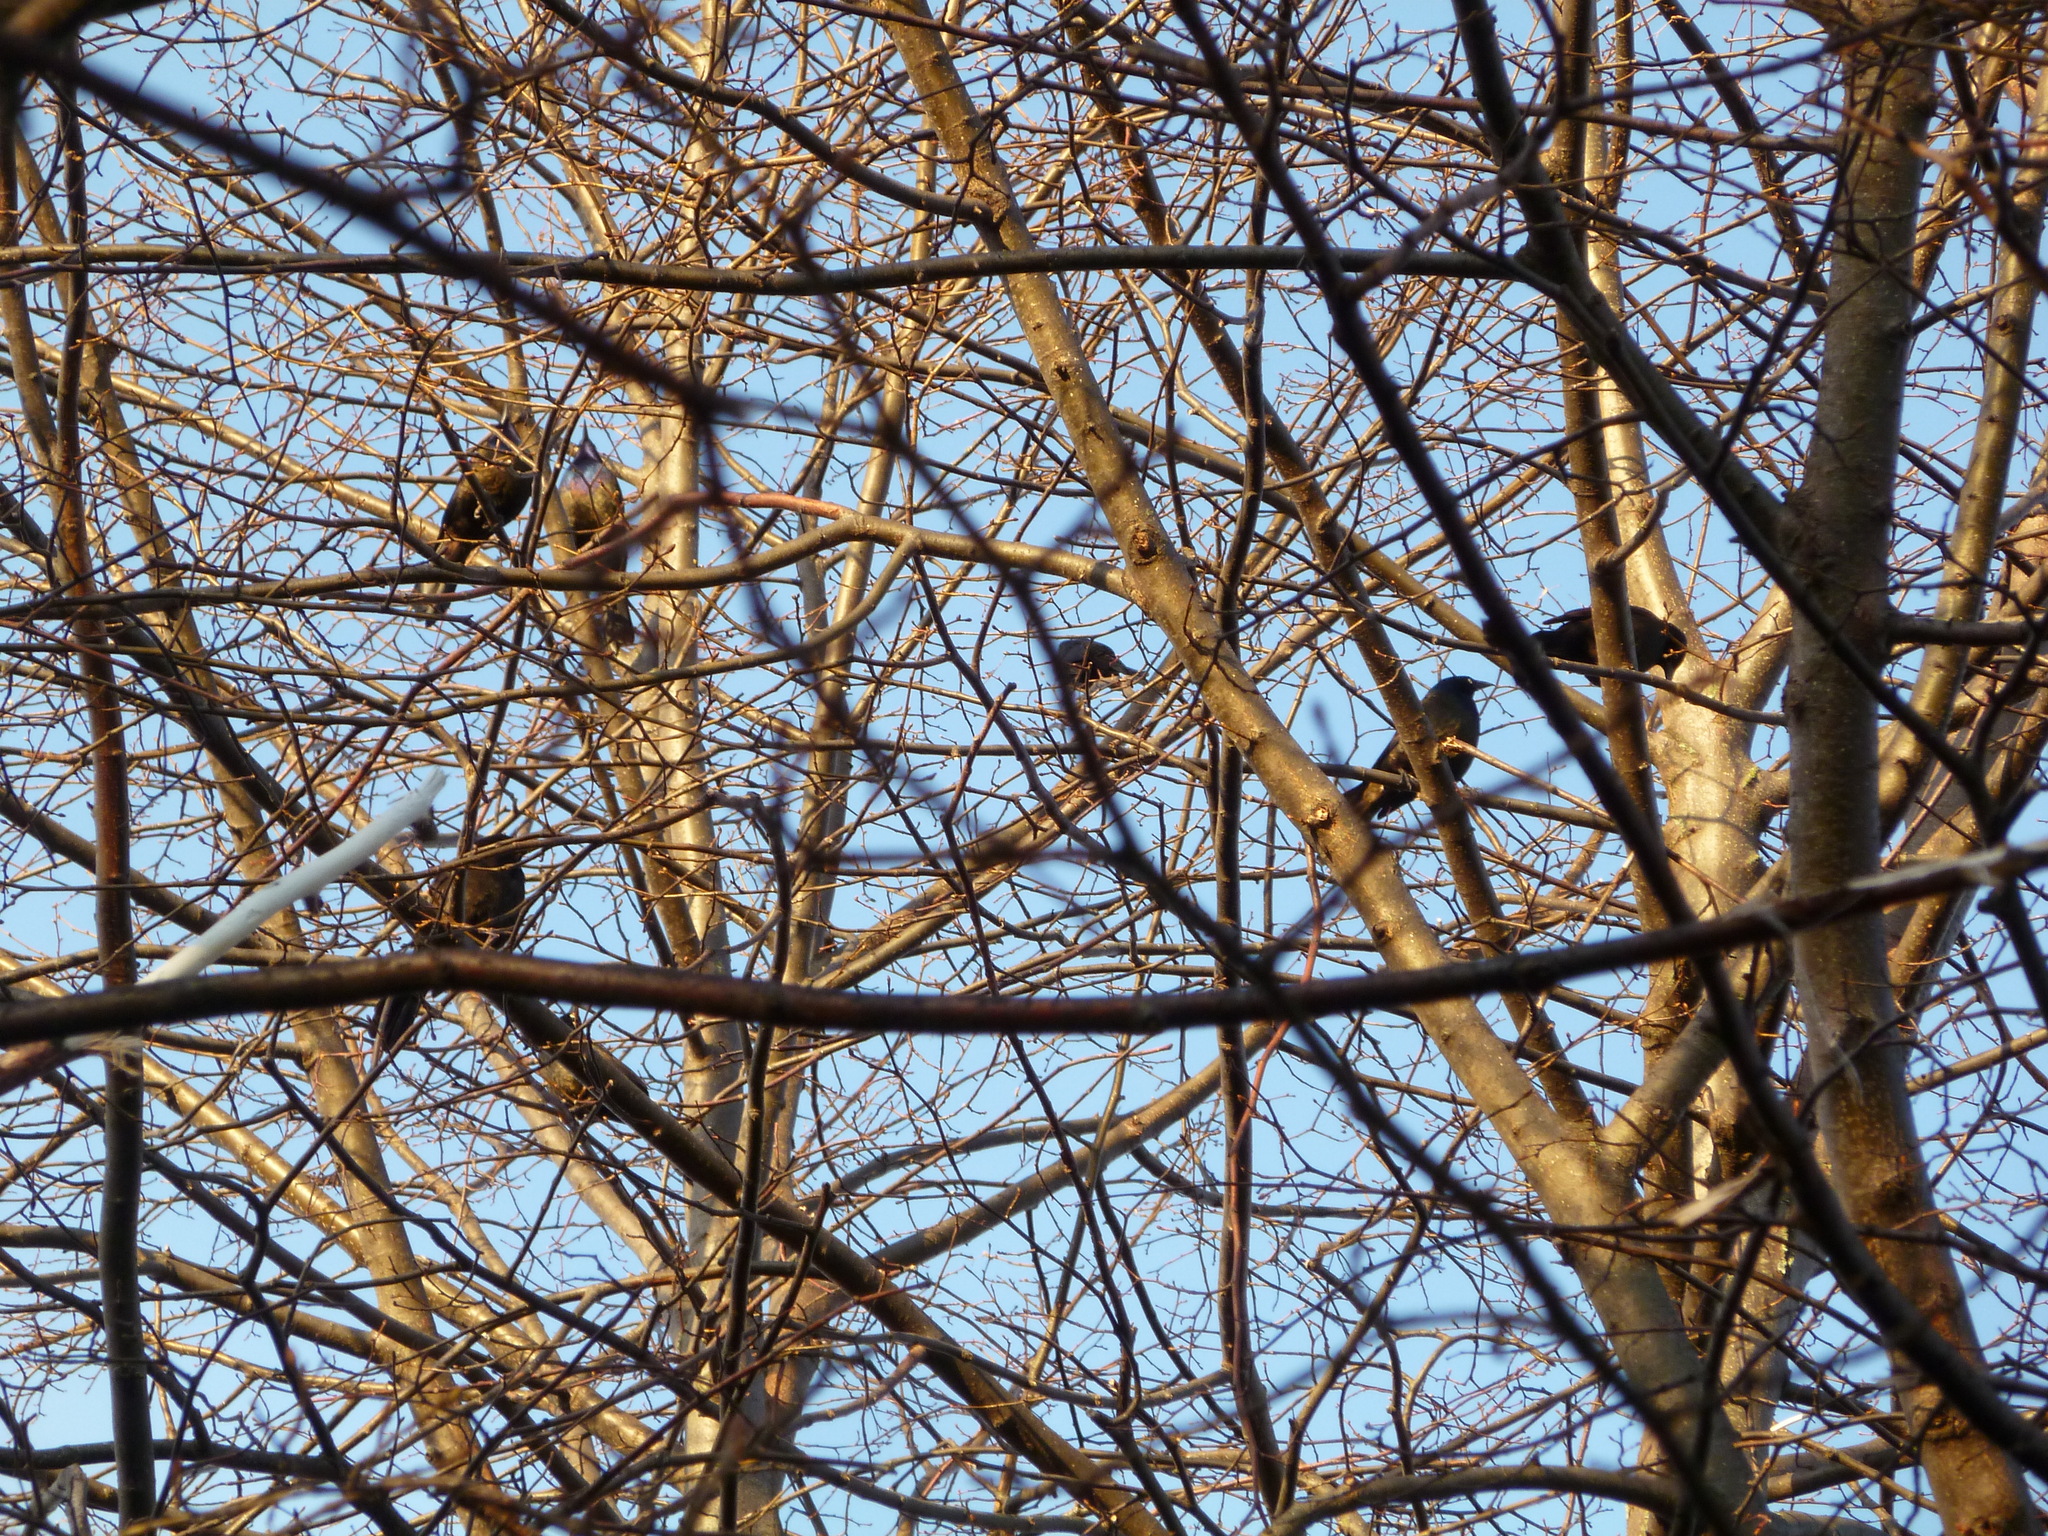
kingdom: Animalia
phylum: Chordata
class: Aves
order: Passeriformes
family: Icteridae
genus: Quiscalus
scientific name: Quiscalus quiscula
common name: Common grackle
